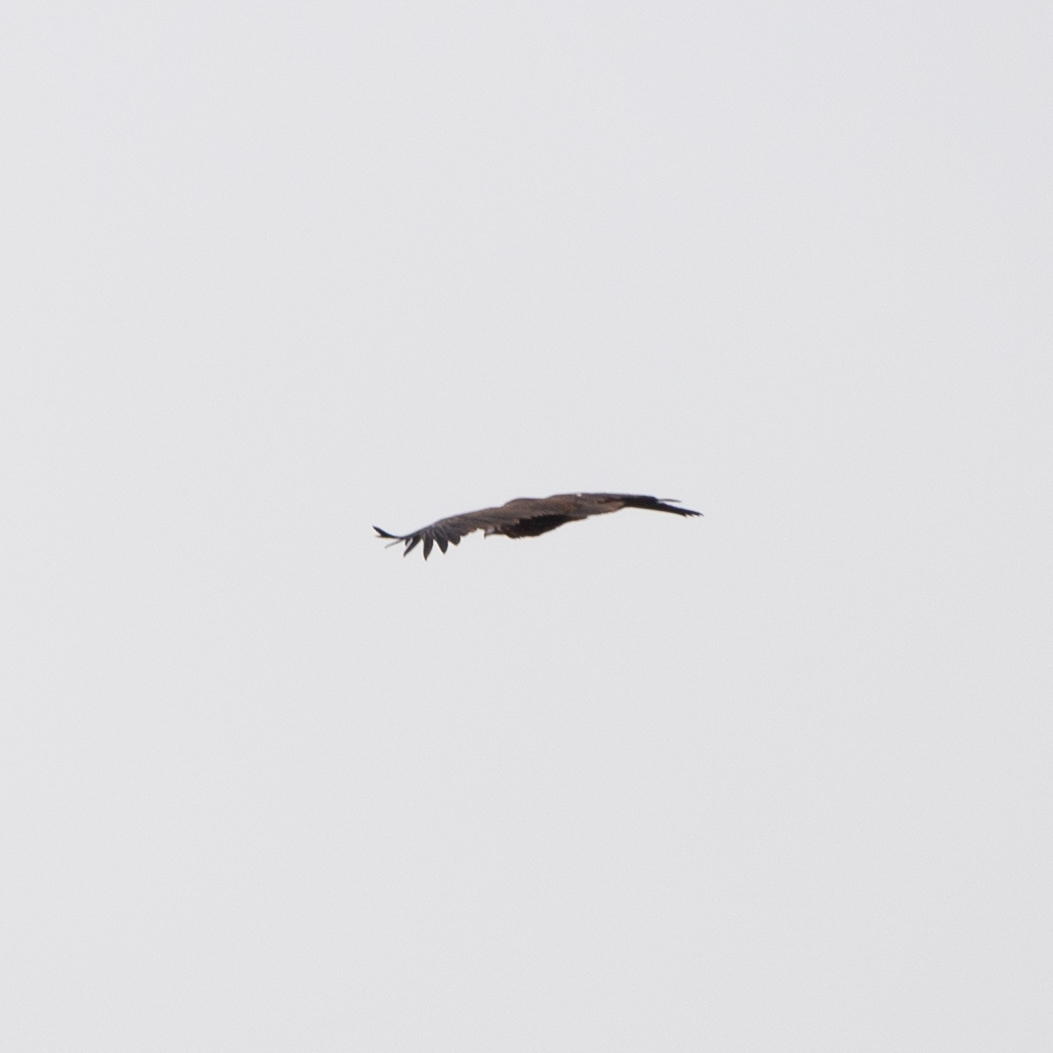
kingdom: Animalia
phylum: Chordata
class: Aves
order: Accipitriformes
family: Accipitridae
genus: Aegypius
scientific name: Aegypius monachus
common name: Cinereous vulture
